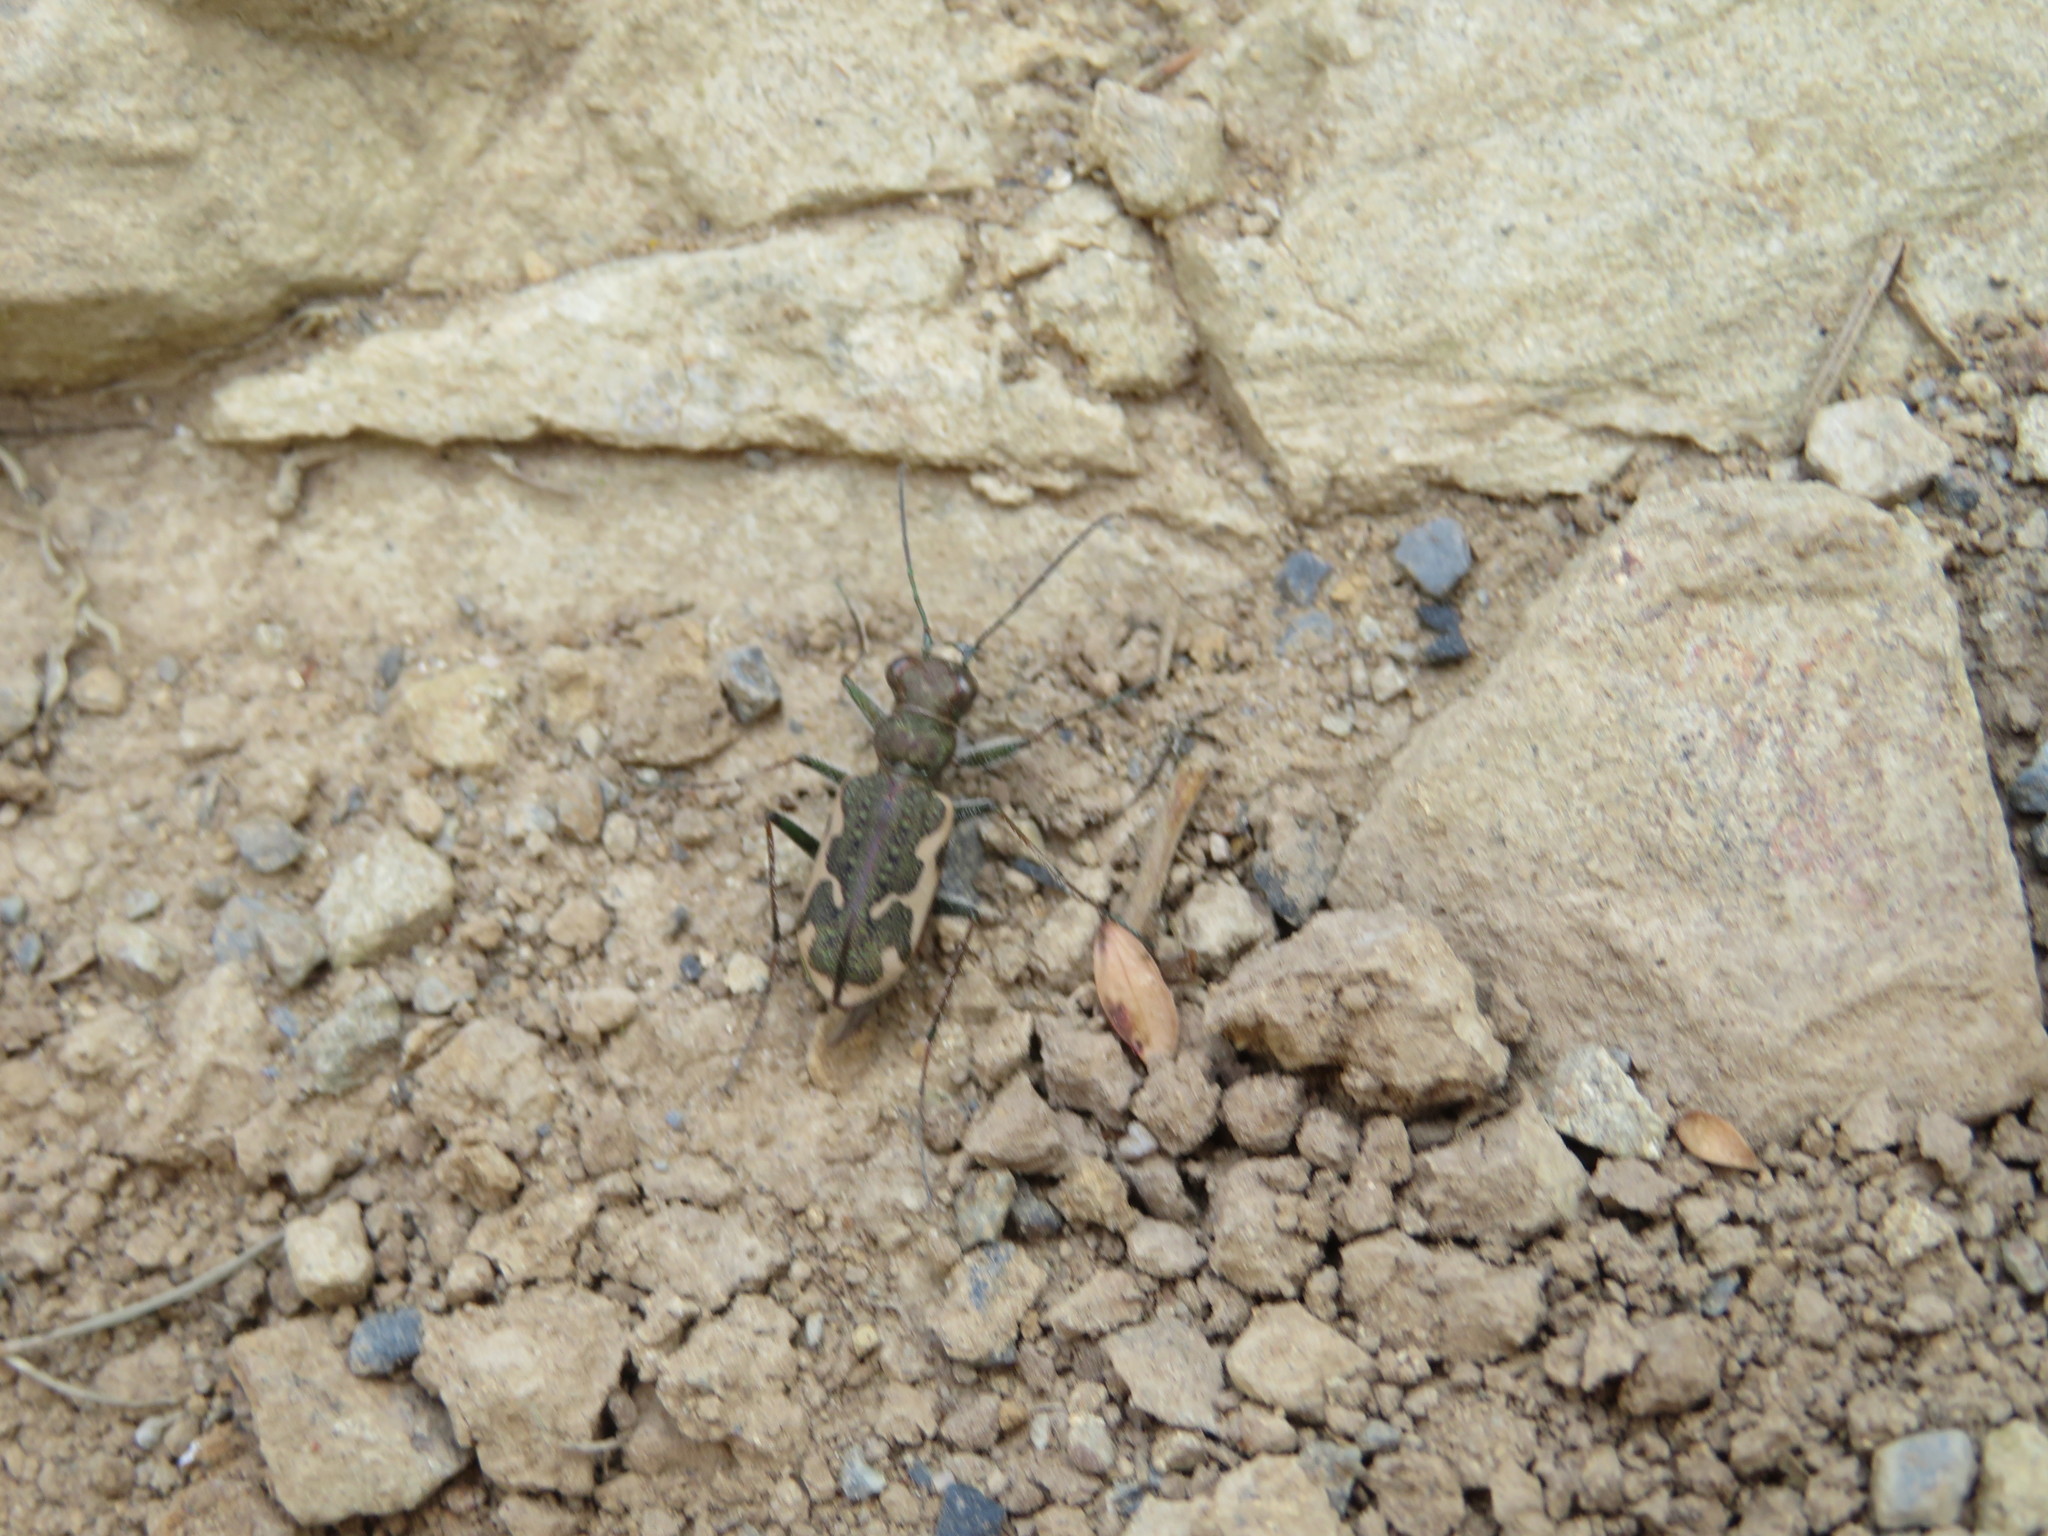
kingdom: Animalia
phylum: Arthropoda
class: Insecta
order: Coleoptera
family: Carabidae
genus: Neocicindela
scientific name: Neocicindela tuberculata
